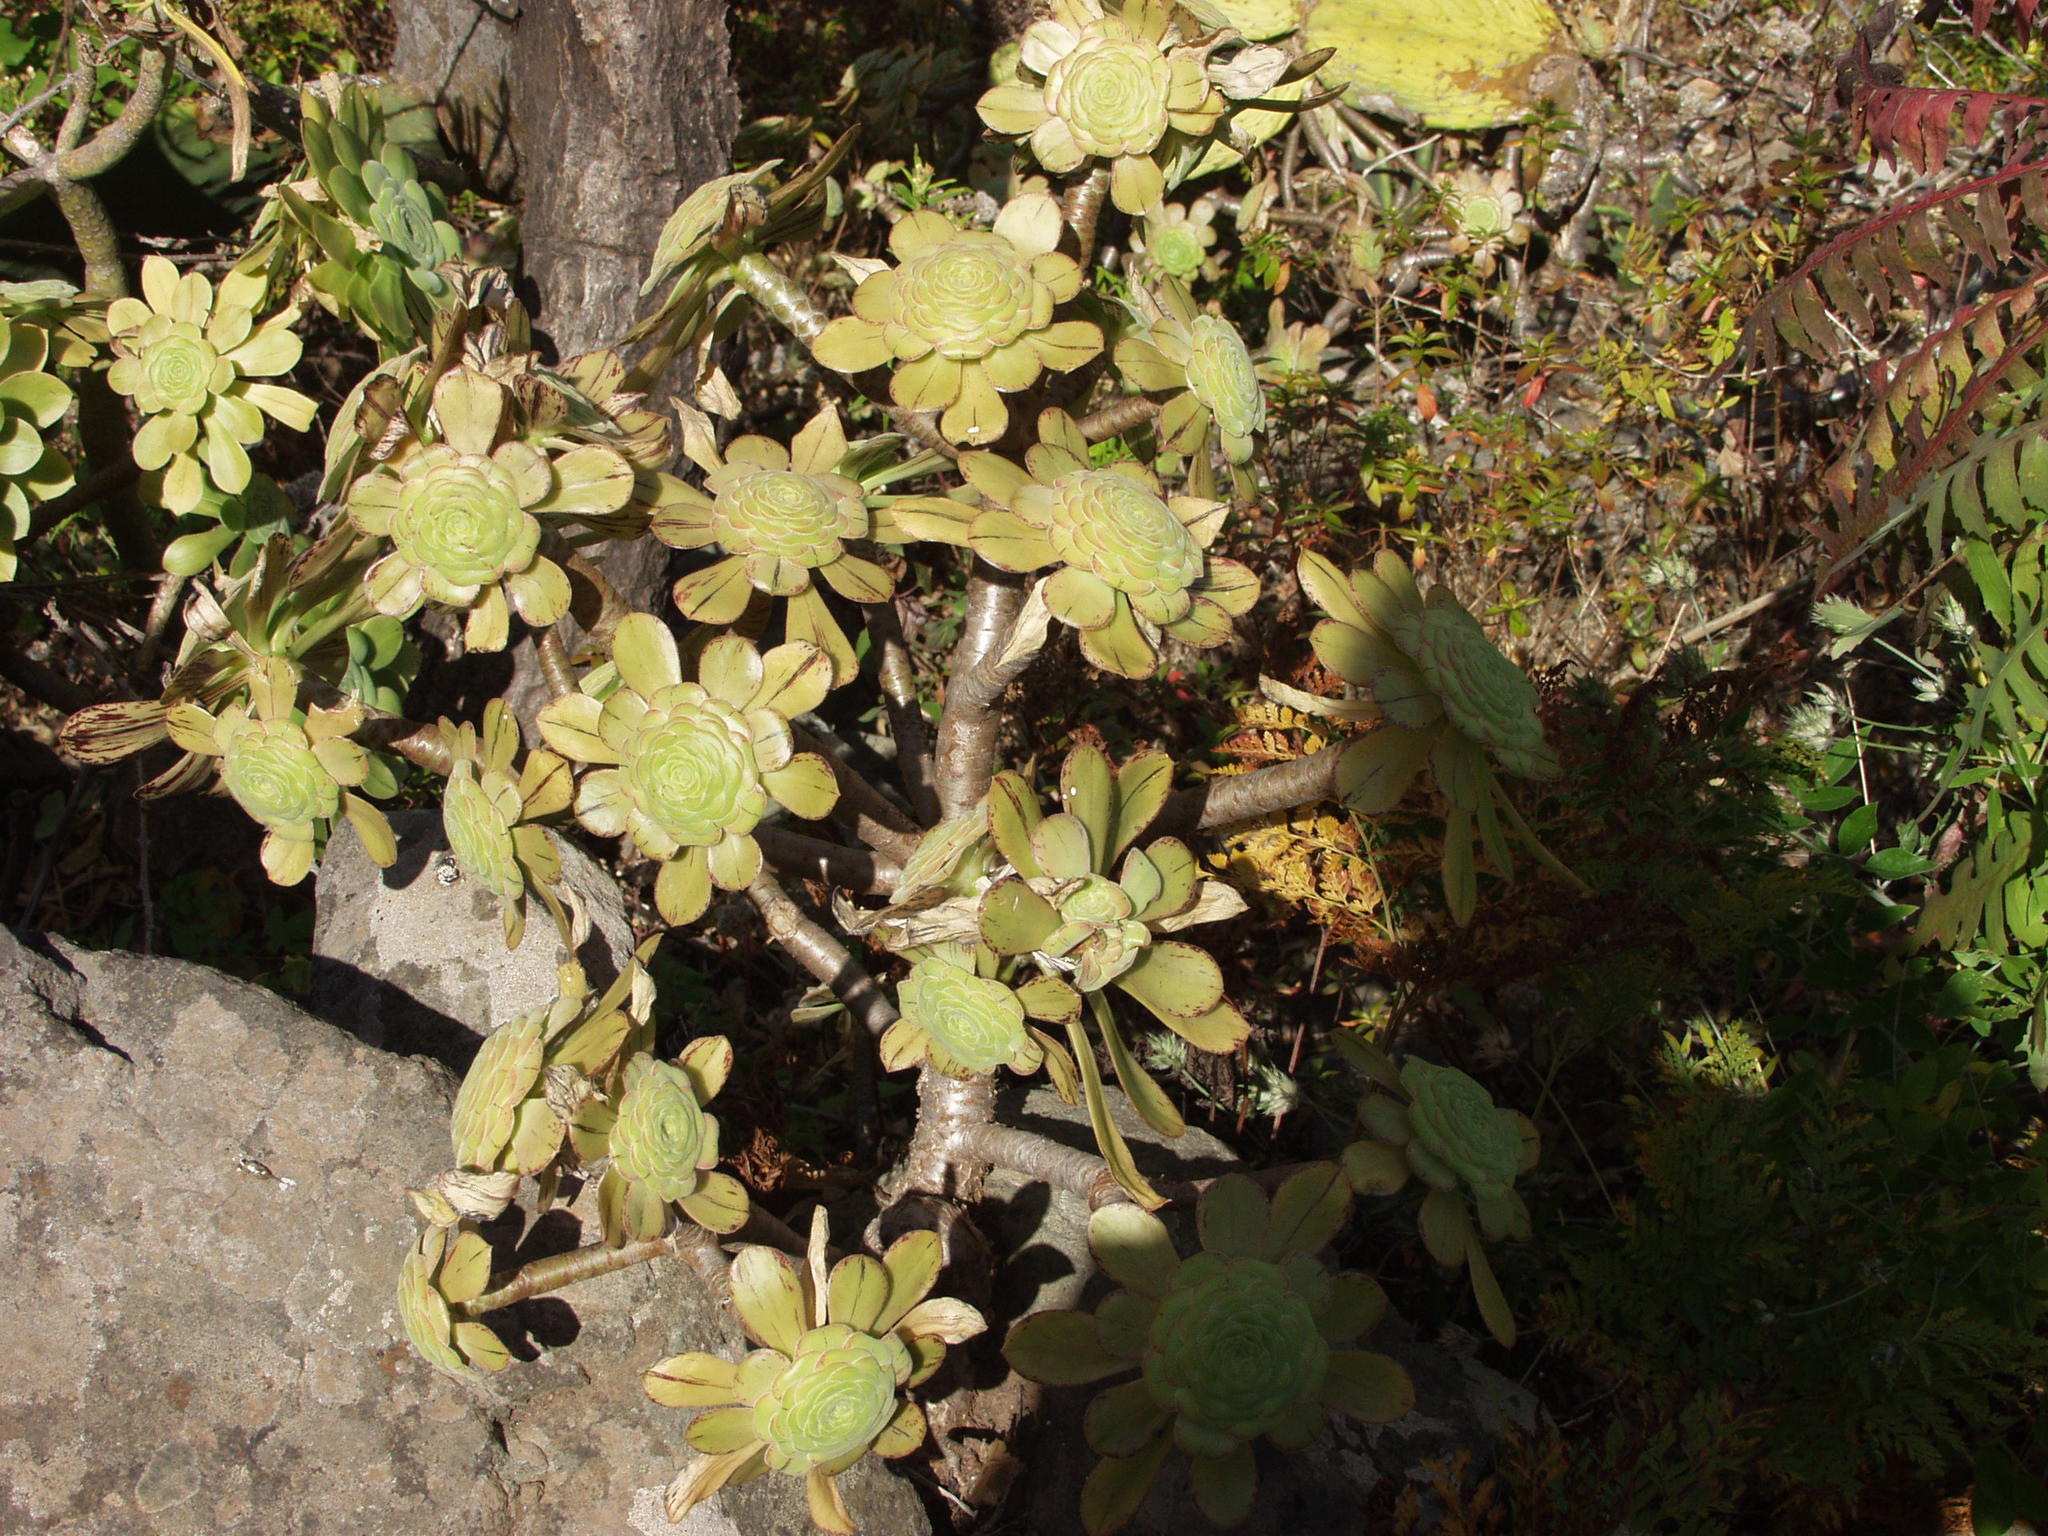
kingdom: Plantae
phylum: Tracheophyta
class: Magnoliopsida
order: Saxifragales
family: Crassulaceae
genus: Aeonium
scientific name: Aeonium arboreum
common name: Tree aeonium
